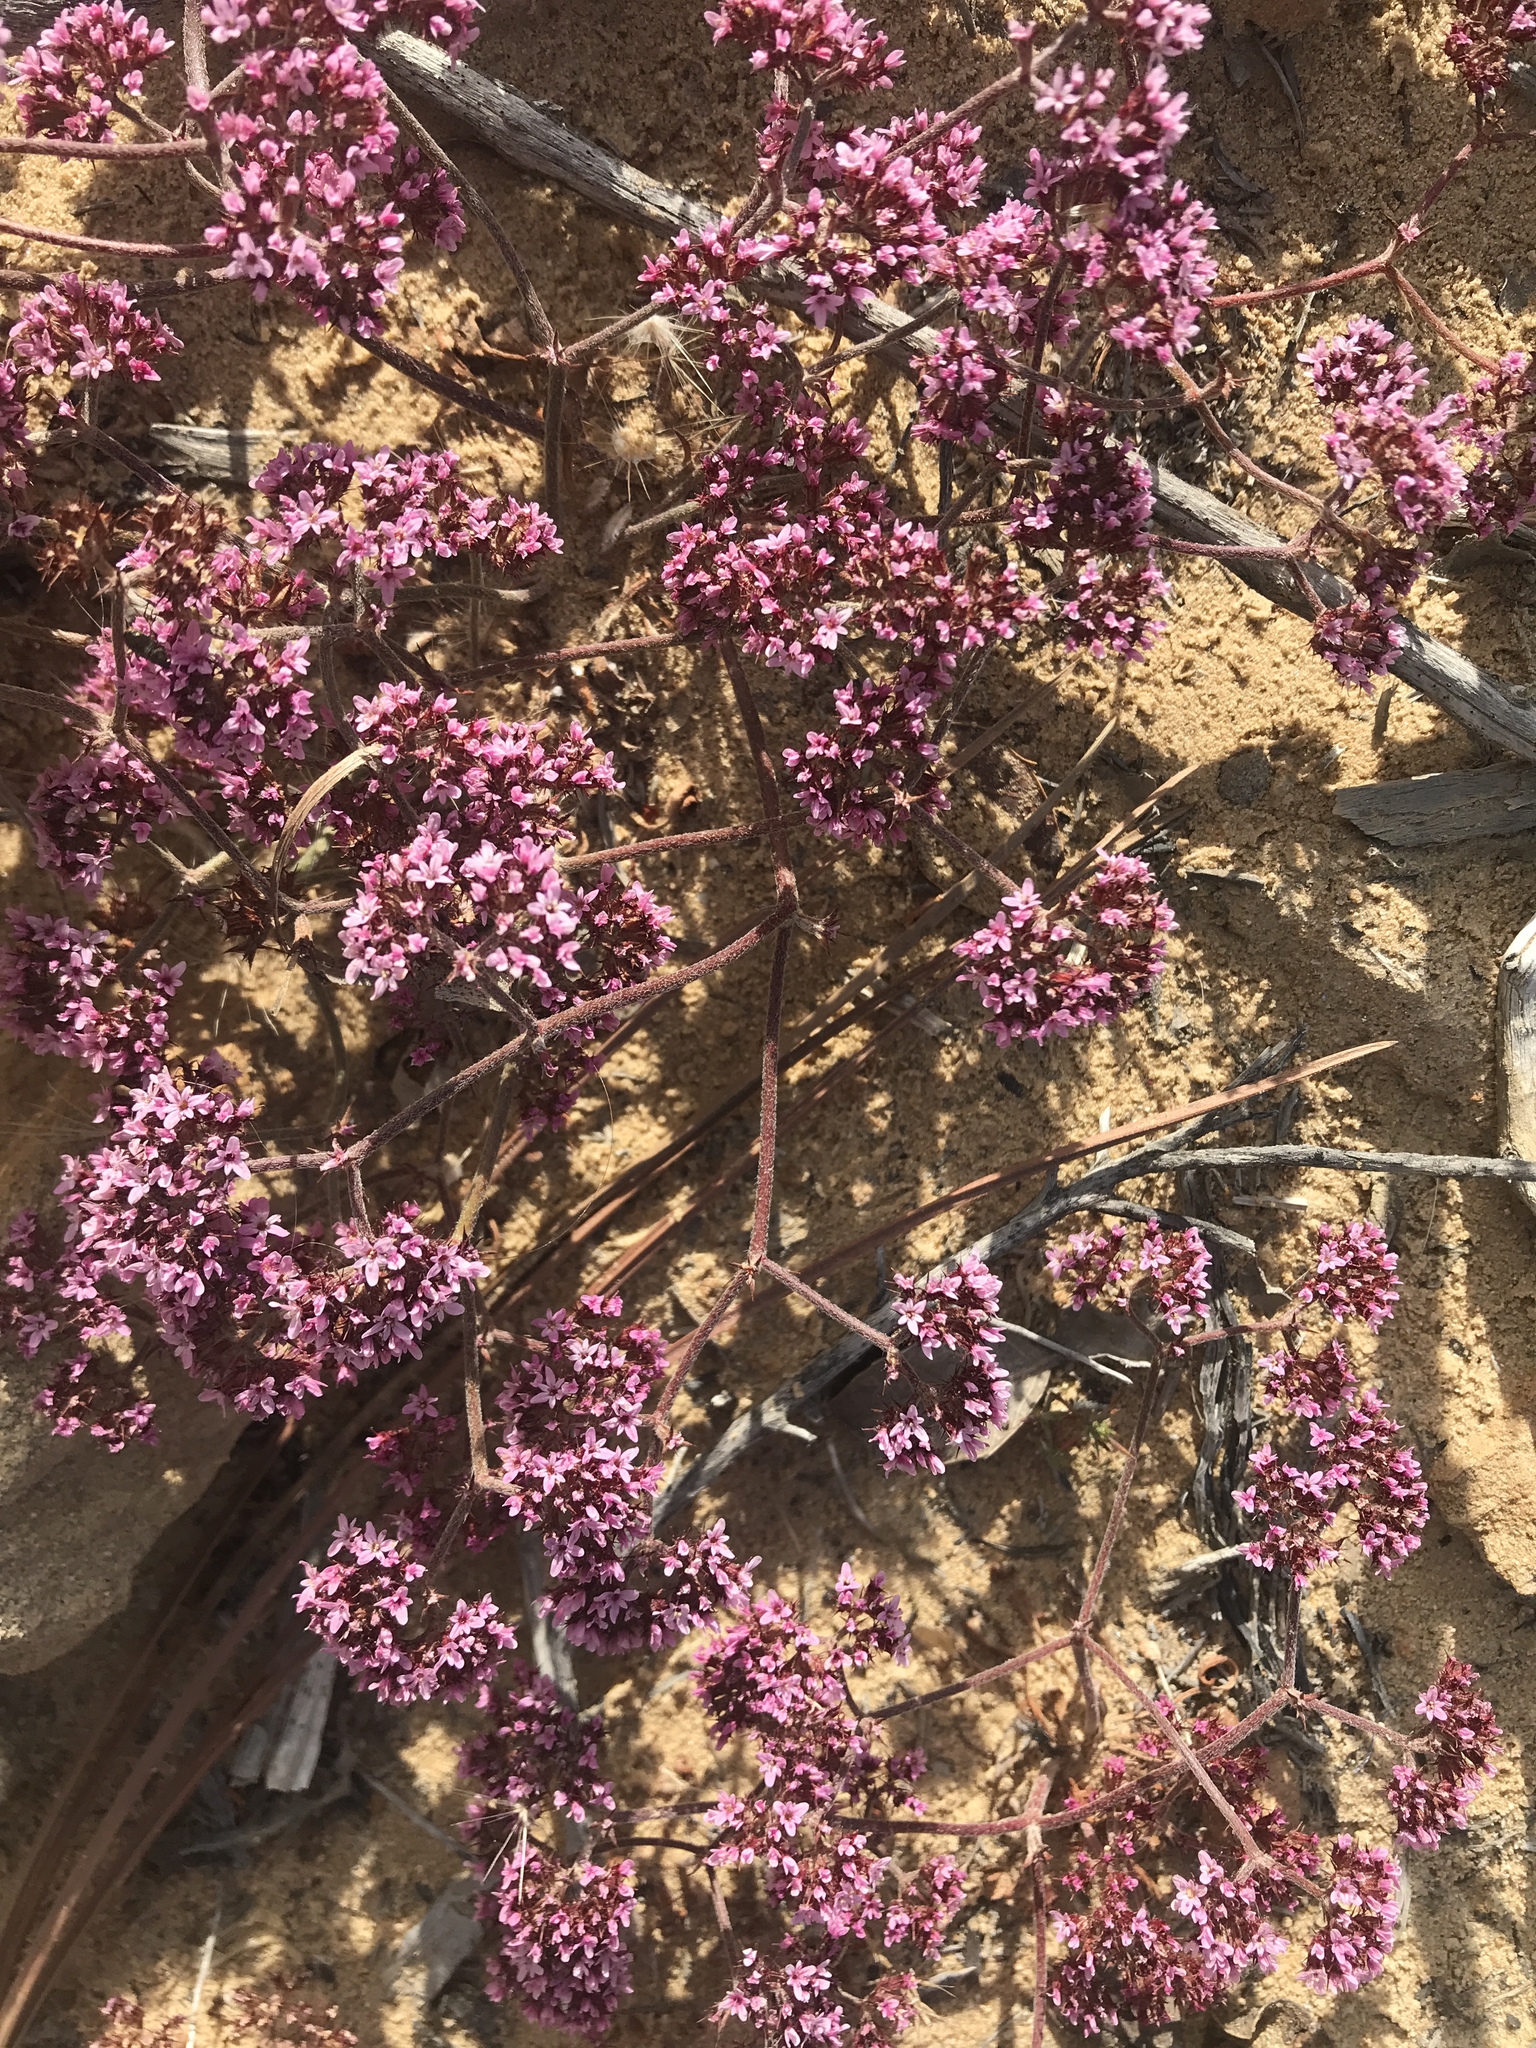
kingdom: Plantae
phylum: Tracheophyta
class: Magnoliopsida
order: Caryophyllales
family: Polygonaceae
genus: Chorizanthe
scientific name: Chorizanthe staticoides
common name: Turkish rugging
